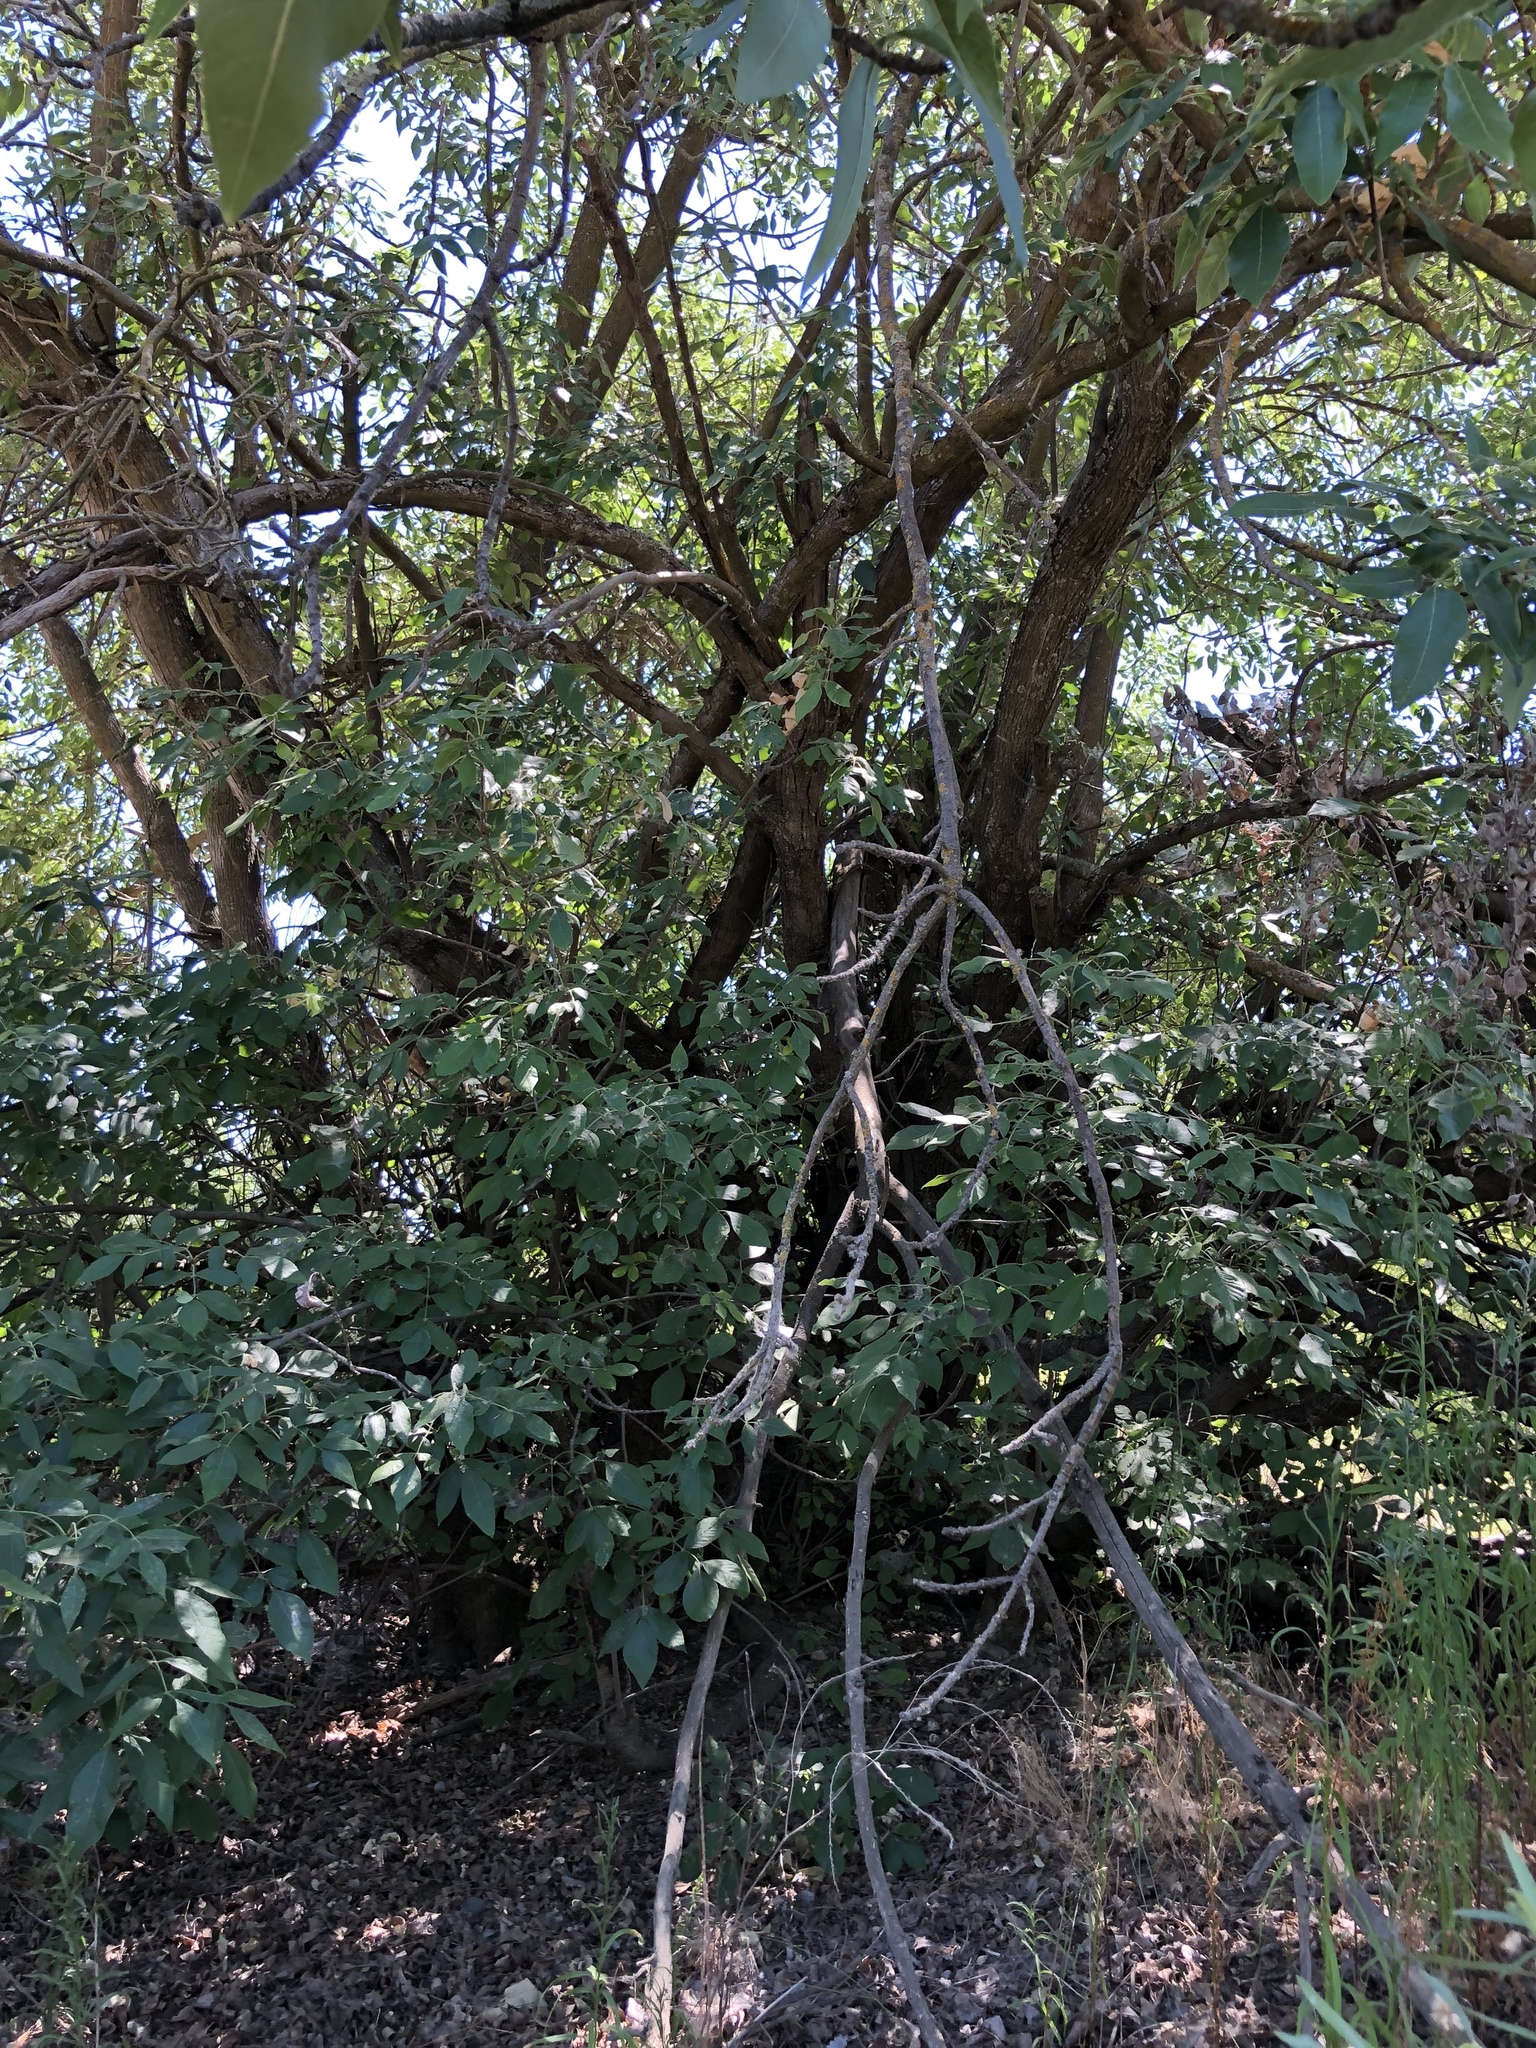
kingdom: Plantae
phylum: Tracheophyta
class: Magnoliopsida
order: Lamiales
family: Oleaceae
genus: Fraxinus
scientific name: Fraxinus latifolia
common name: Oregon ash
